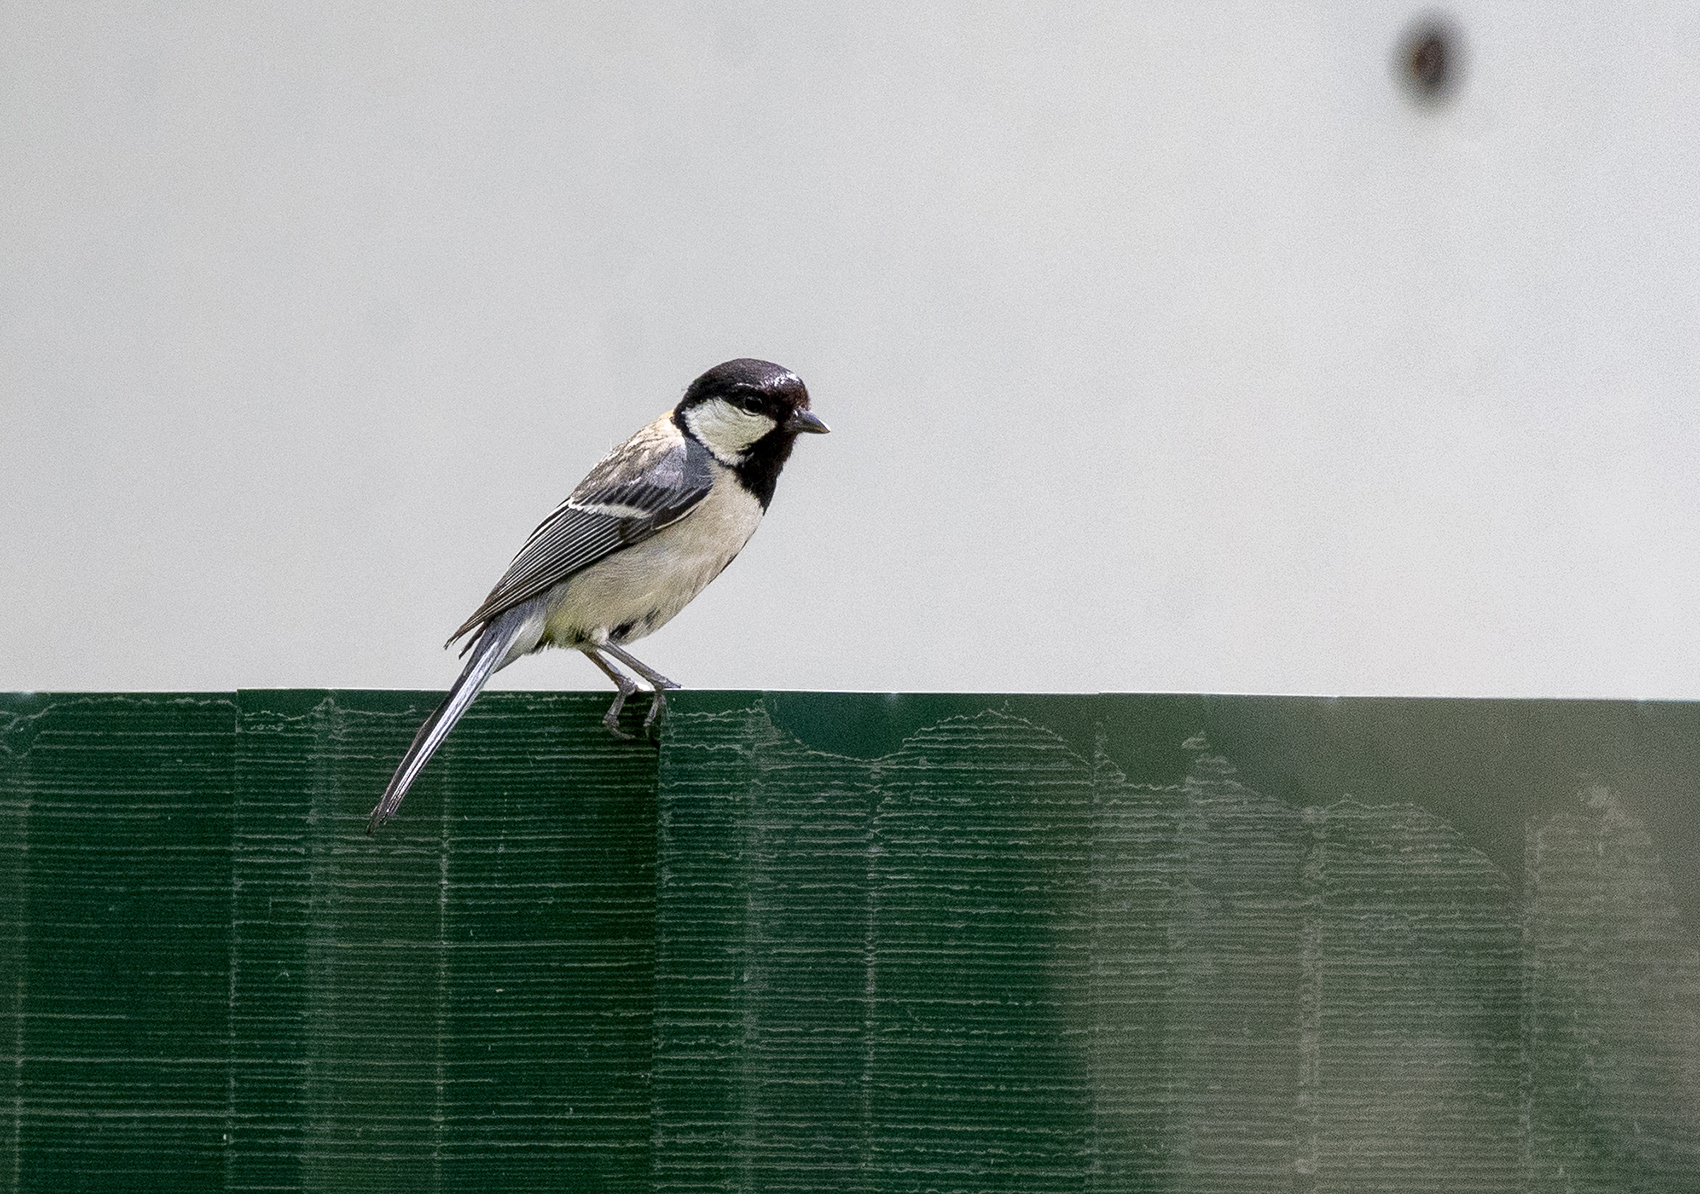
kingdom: Animalia
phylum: Chordata
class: Aves
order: Passeriformes
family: Paridae
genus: Parus
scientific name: Parus minor
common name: Japanese tit
